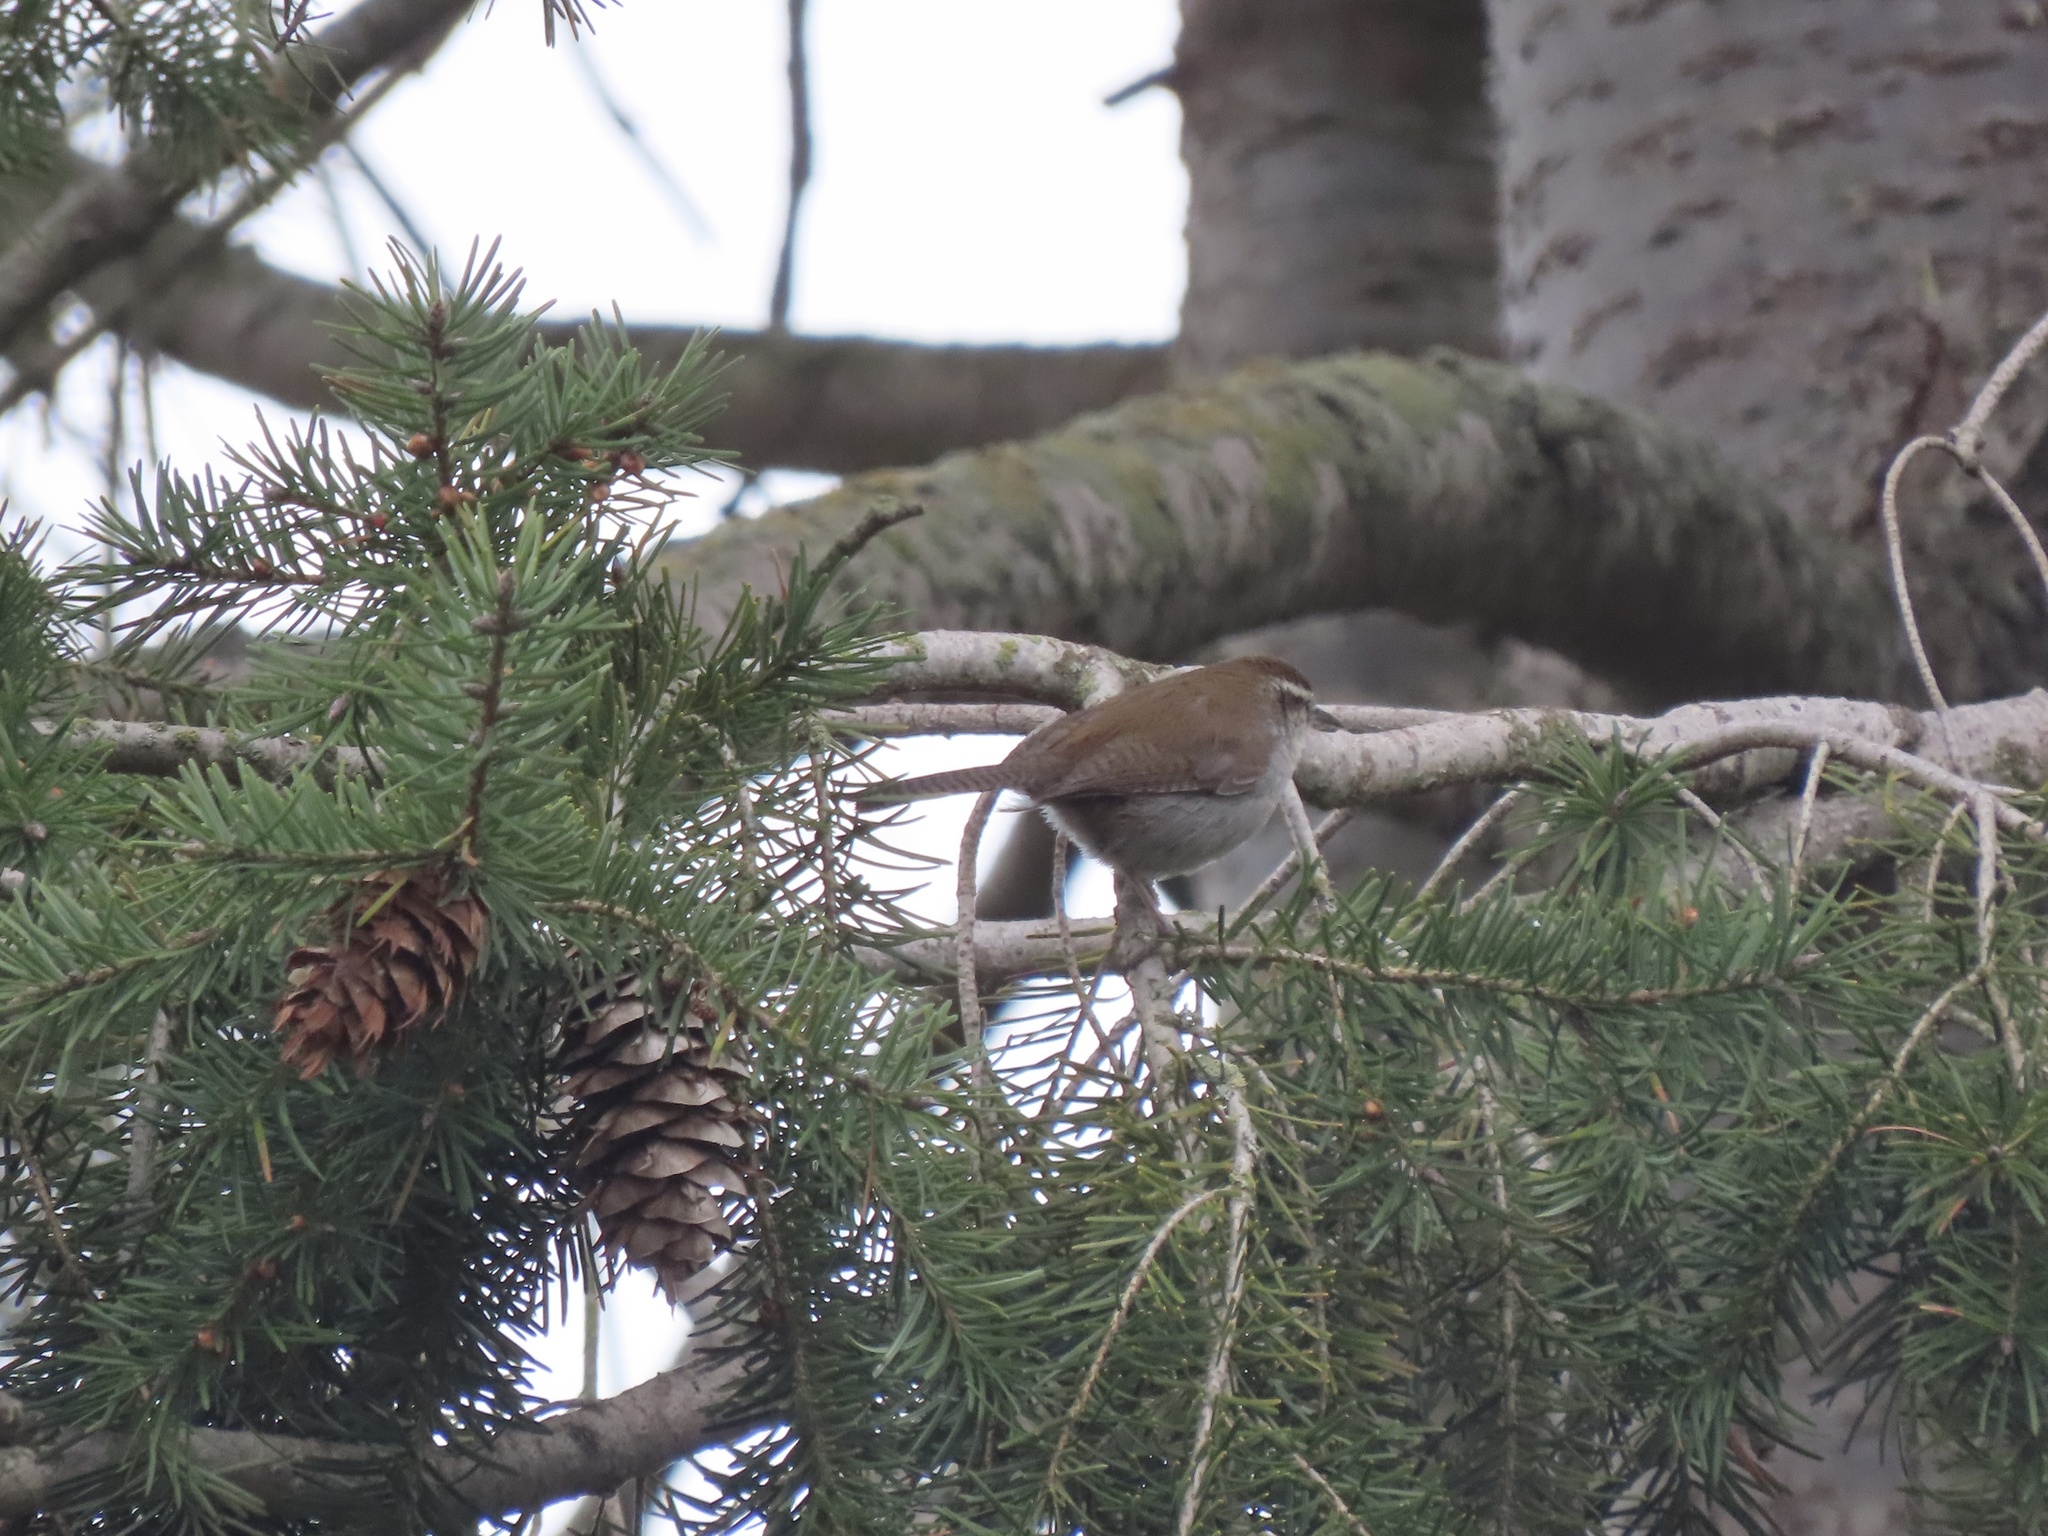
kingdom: Animalia
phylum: Chordata
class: Aves
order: Passeriformes
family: Troglodytidae
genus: Thryomanes
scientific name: Thryomanes bewickii
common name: Bewick's wren
